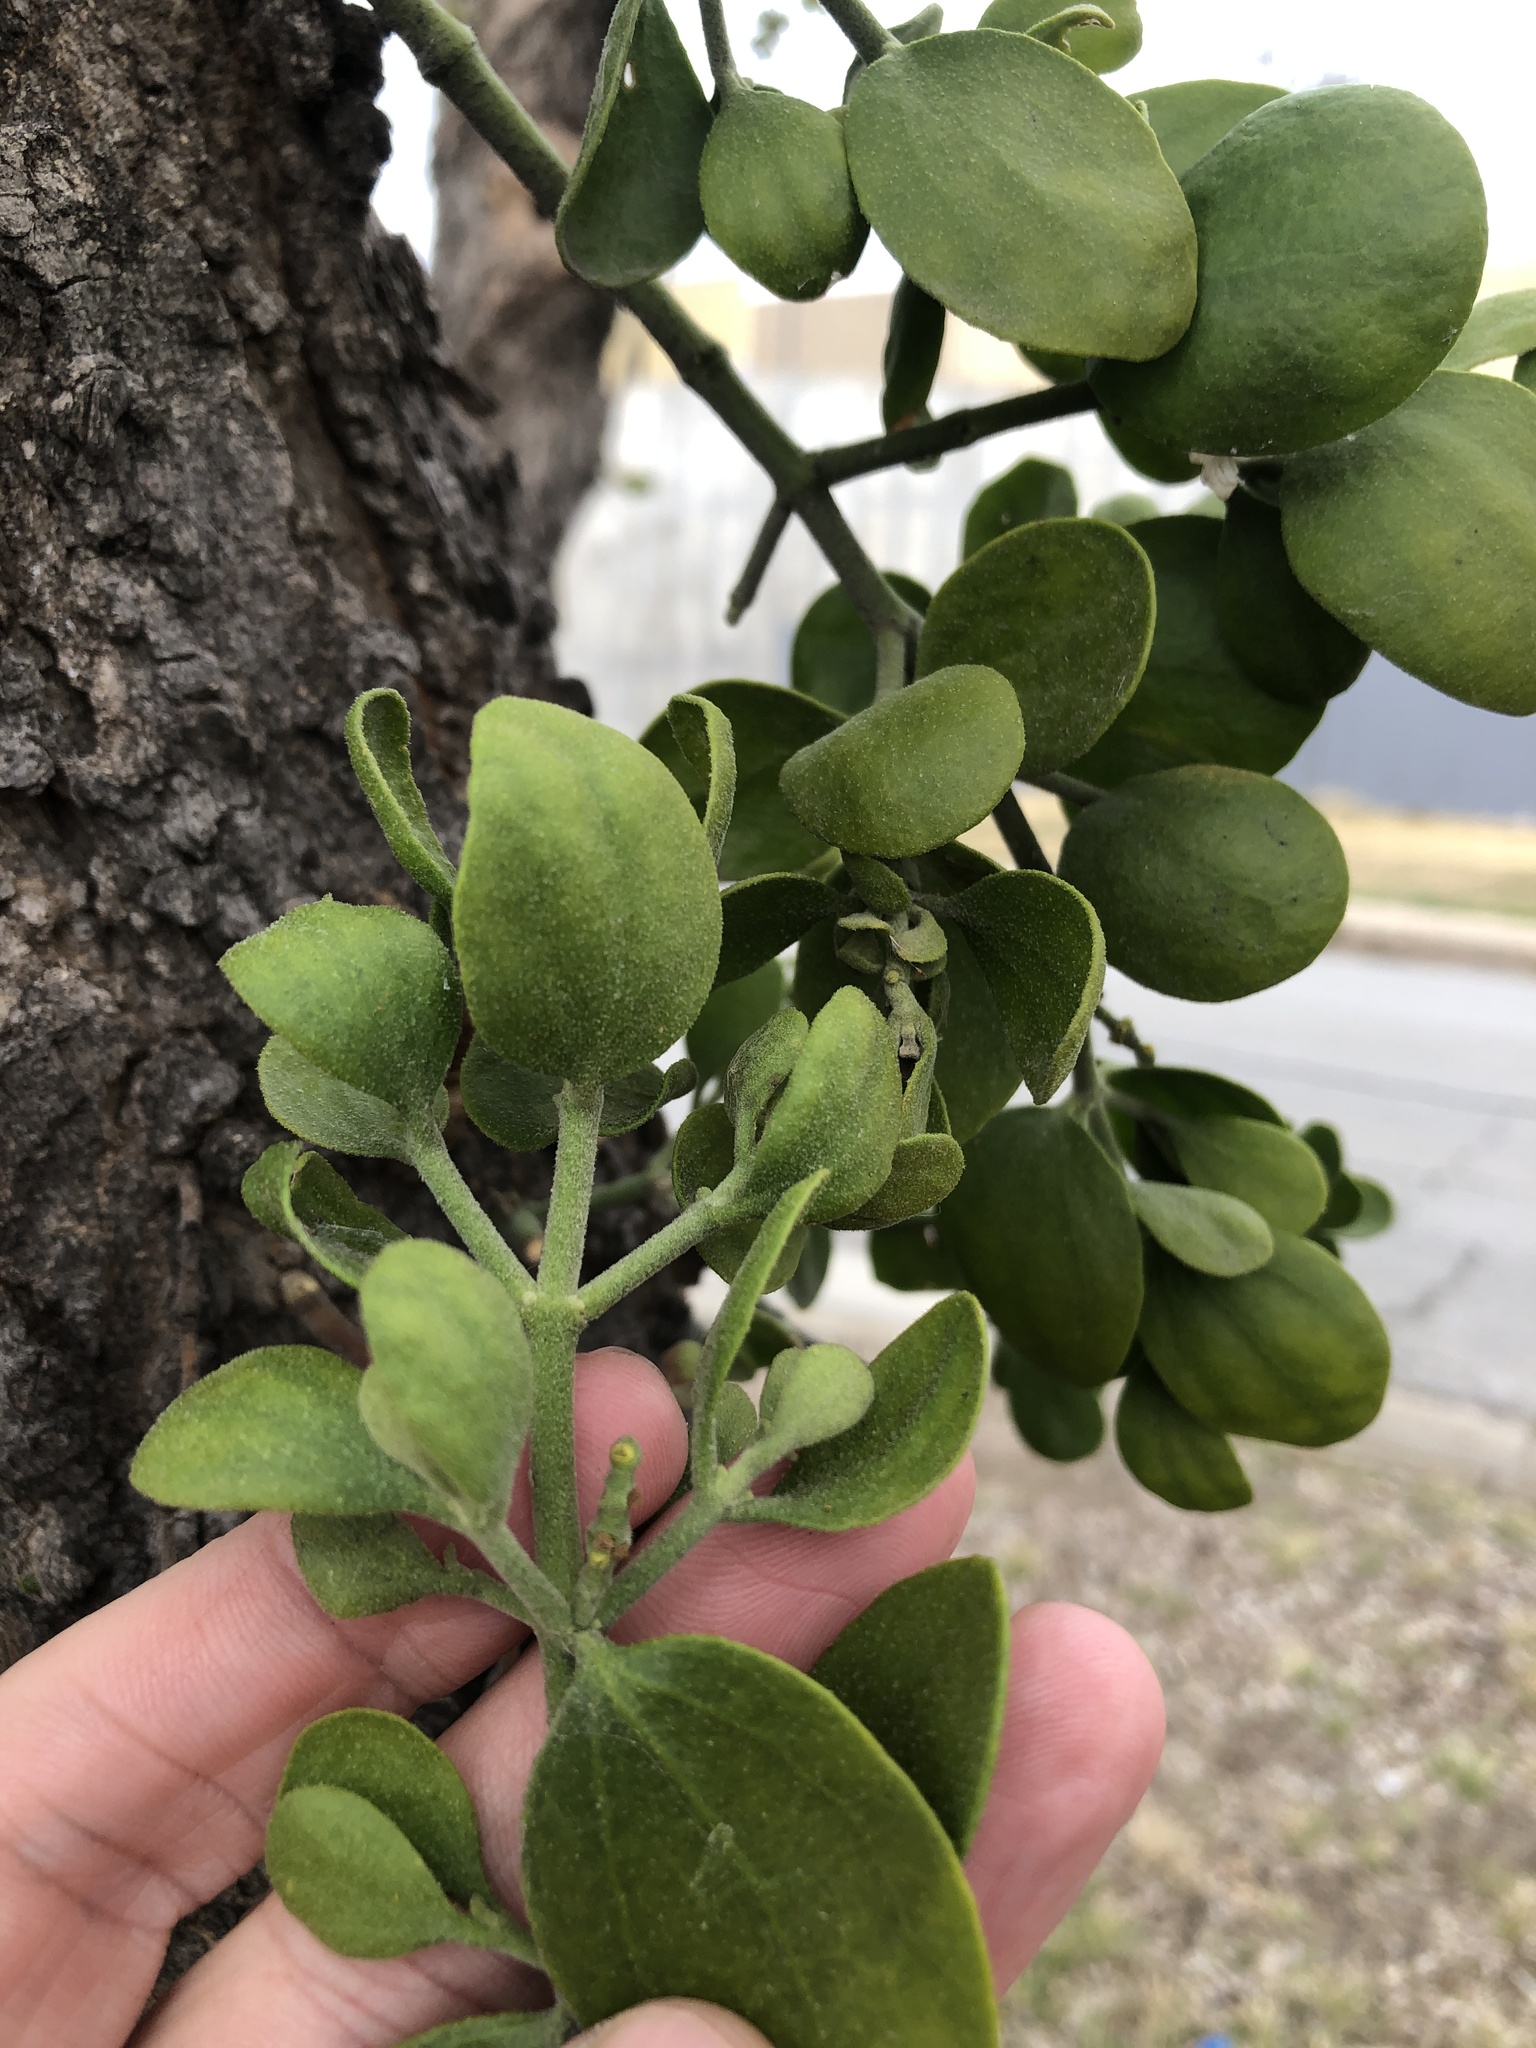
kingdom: Plantae
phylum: Tracheophyta
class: Magnoliopsida
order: Santalales
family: Viscaceae
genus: Phoradendron
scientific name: Phoradendron leucarpum
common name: Pacific mistletoe
